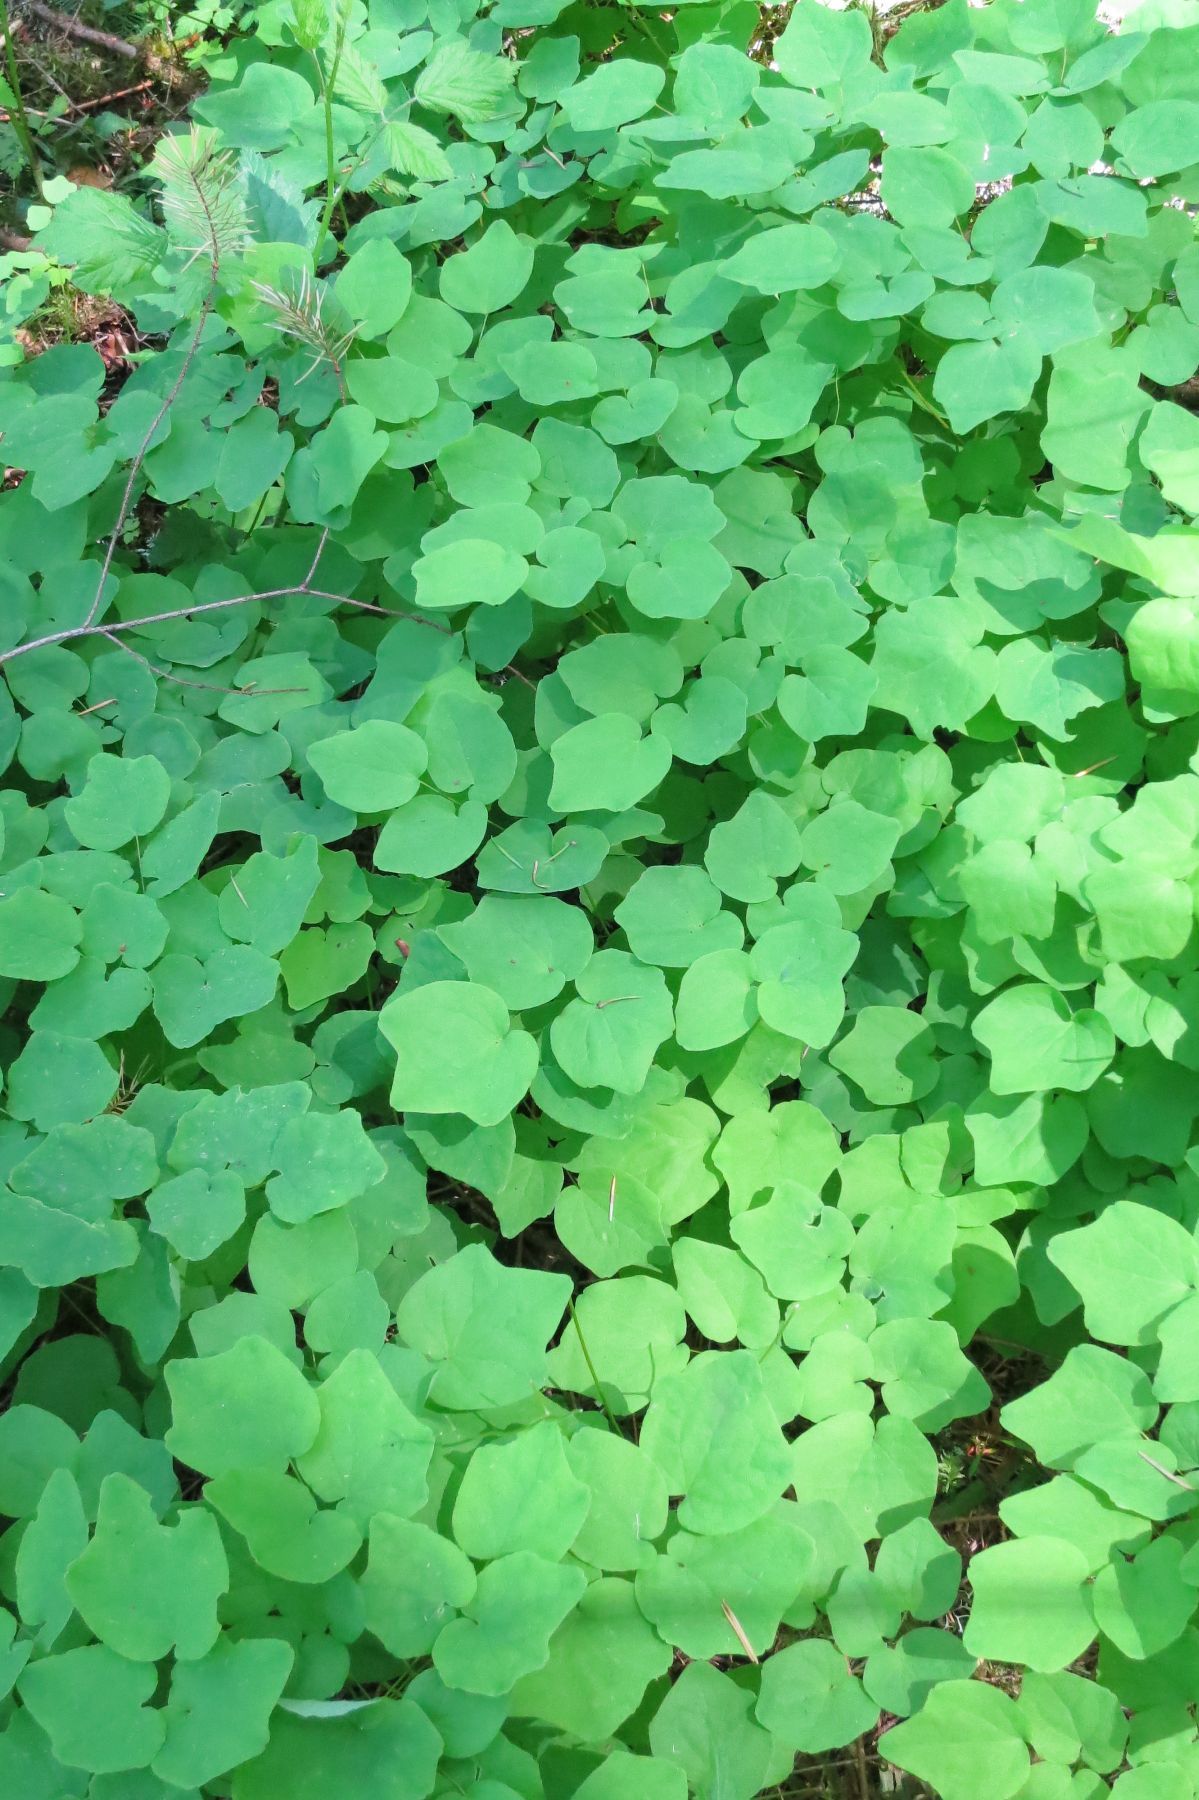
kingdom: Plantae
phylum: Tracheophyta
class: Magnoliopsida
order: Ranunculales
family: Berberidaceae
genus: Vancouveria
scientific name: Vancouveria hexandra
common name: Northern inside-out-flower
